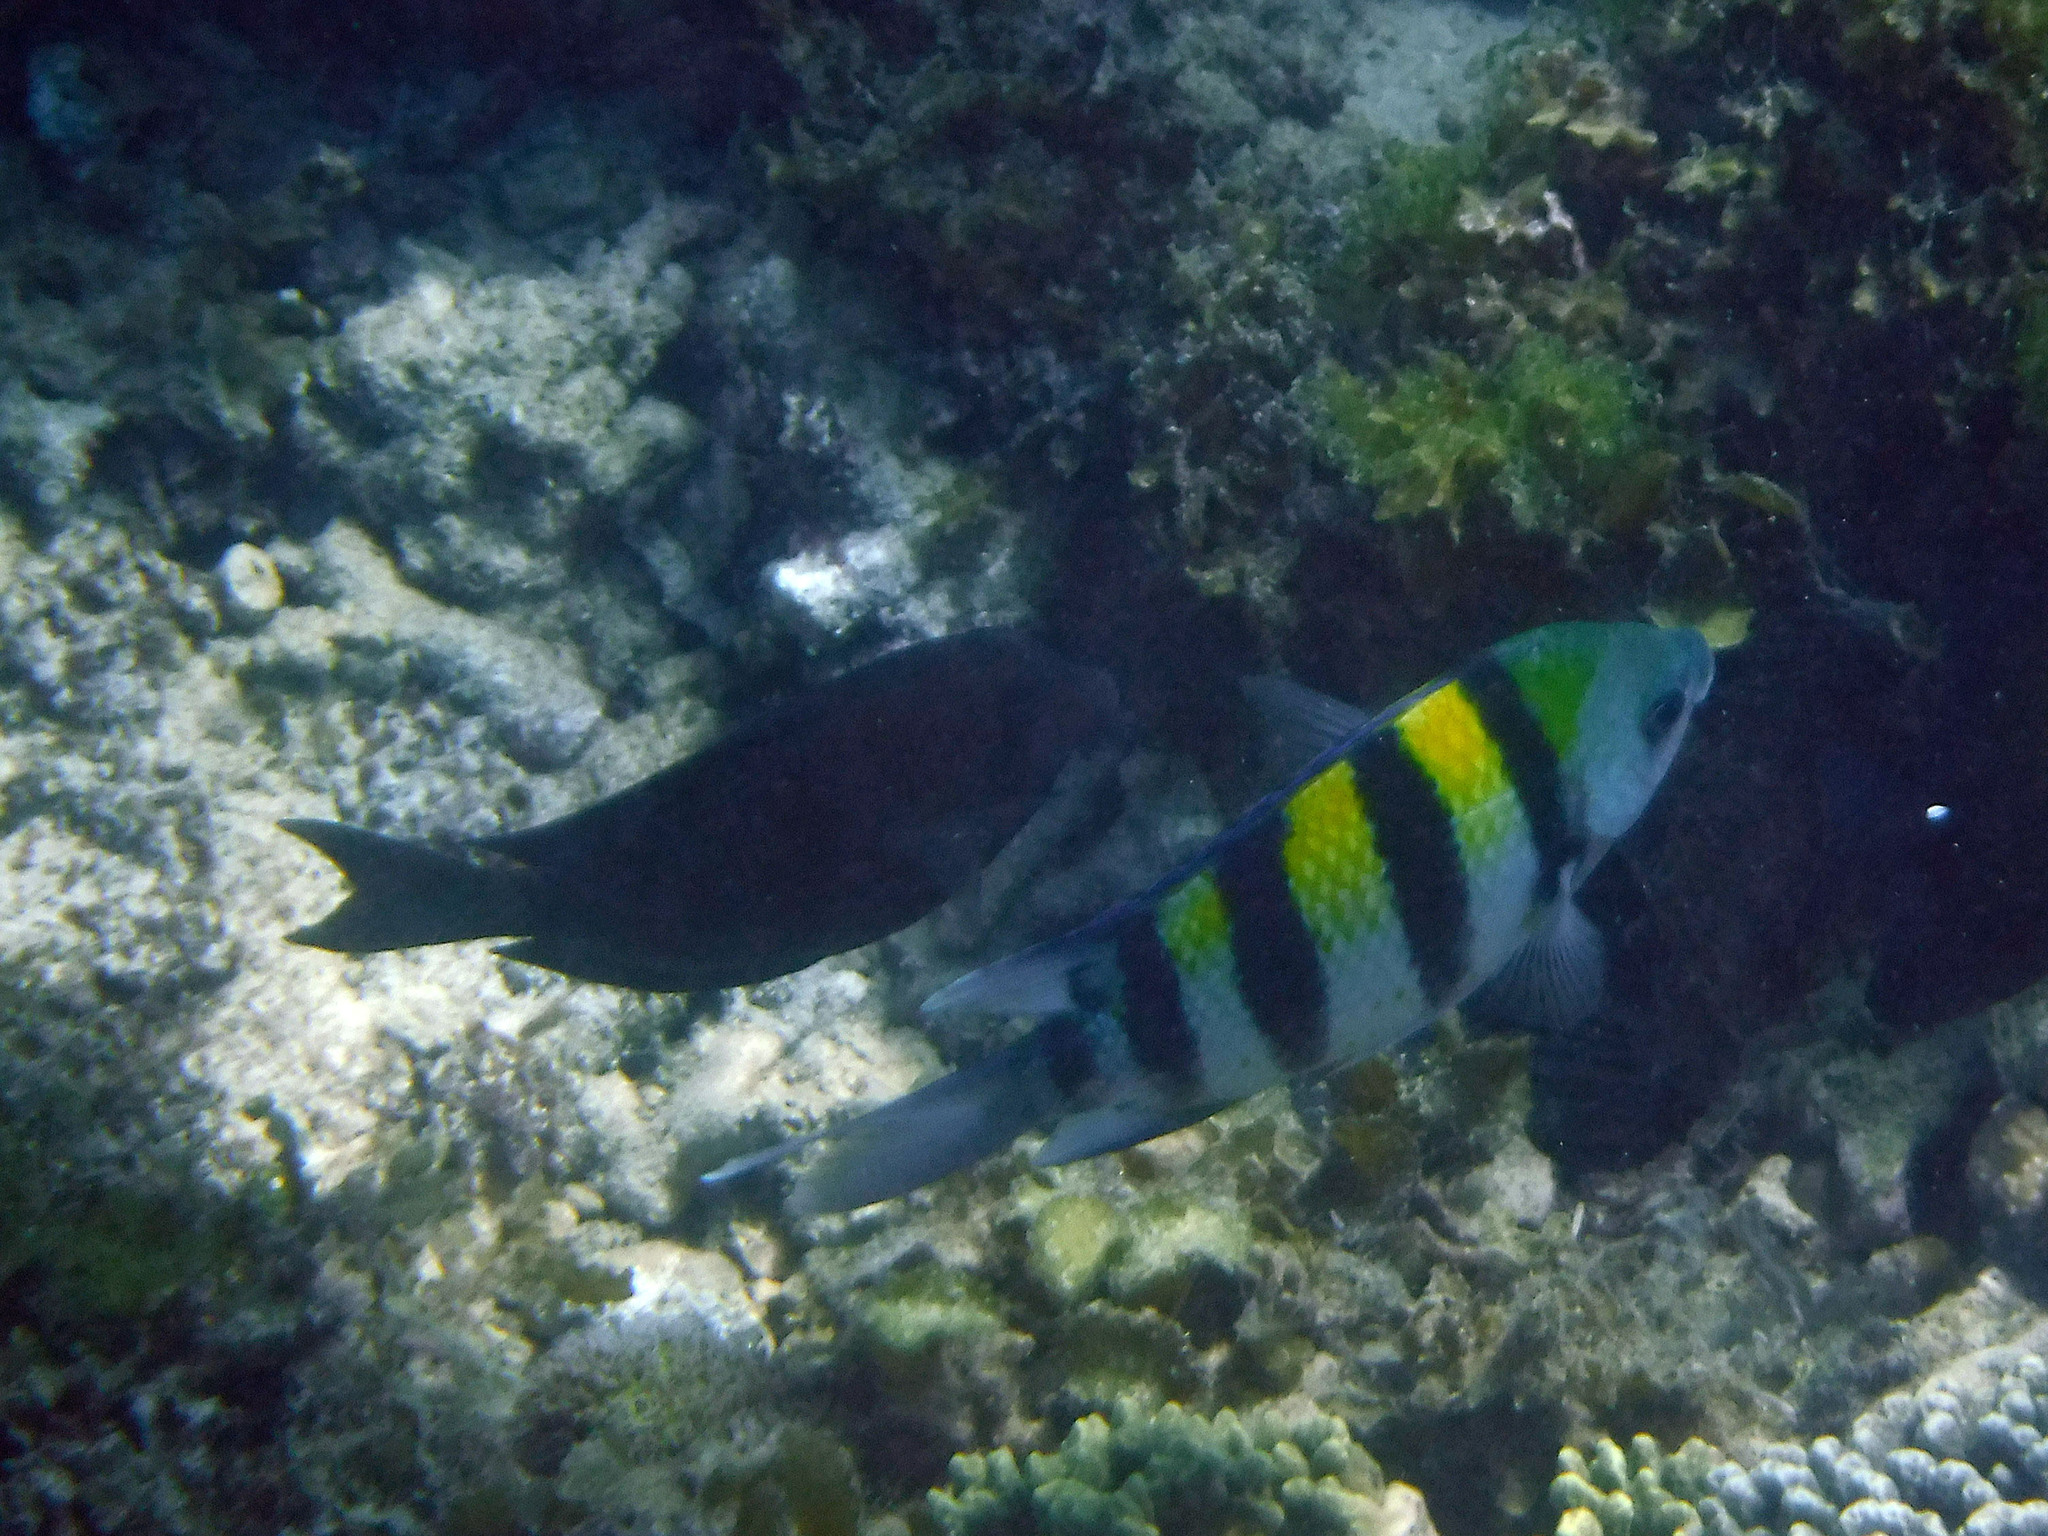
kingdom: Animalia
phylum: Chordata
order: Perciformes
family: Pomacentridae
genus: Abudefduf
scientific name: Abudefduf vaigiensis
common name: Indo-pacific sergeant
